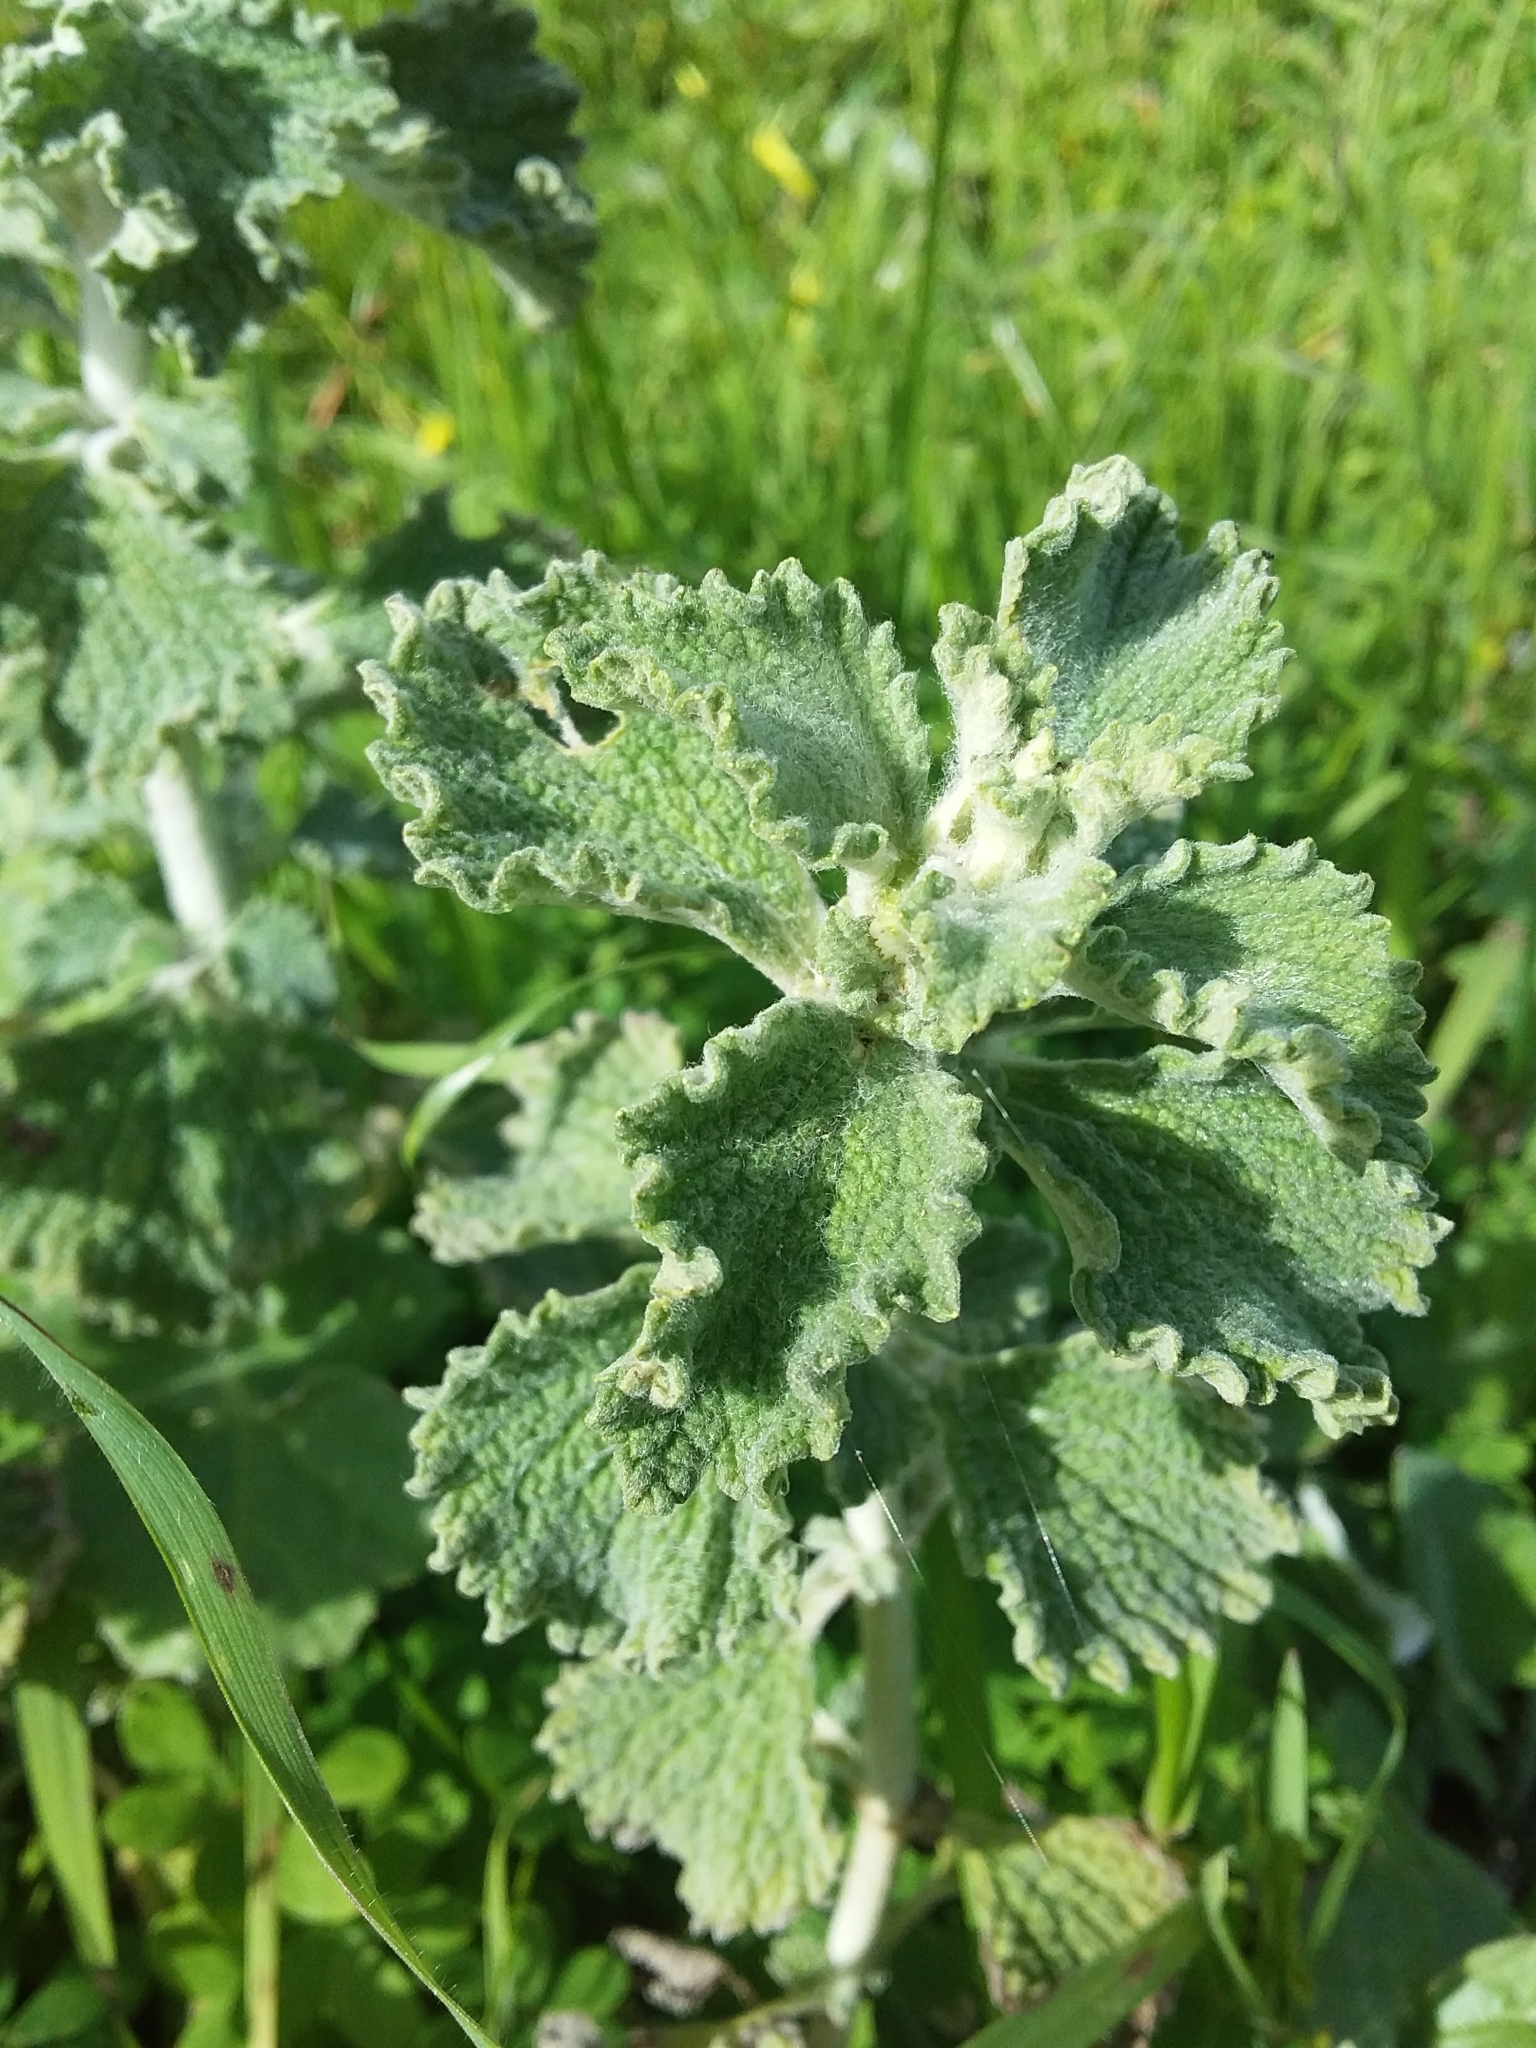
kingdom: Plantae
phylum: Tracheophyta
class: Magnoliopsida
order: Lamiales
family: Lamiaceae
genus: Marrubium
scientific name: Marrubium vulgare
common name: Horehound
